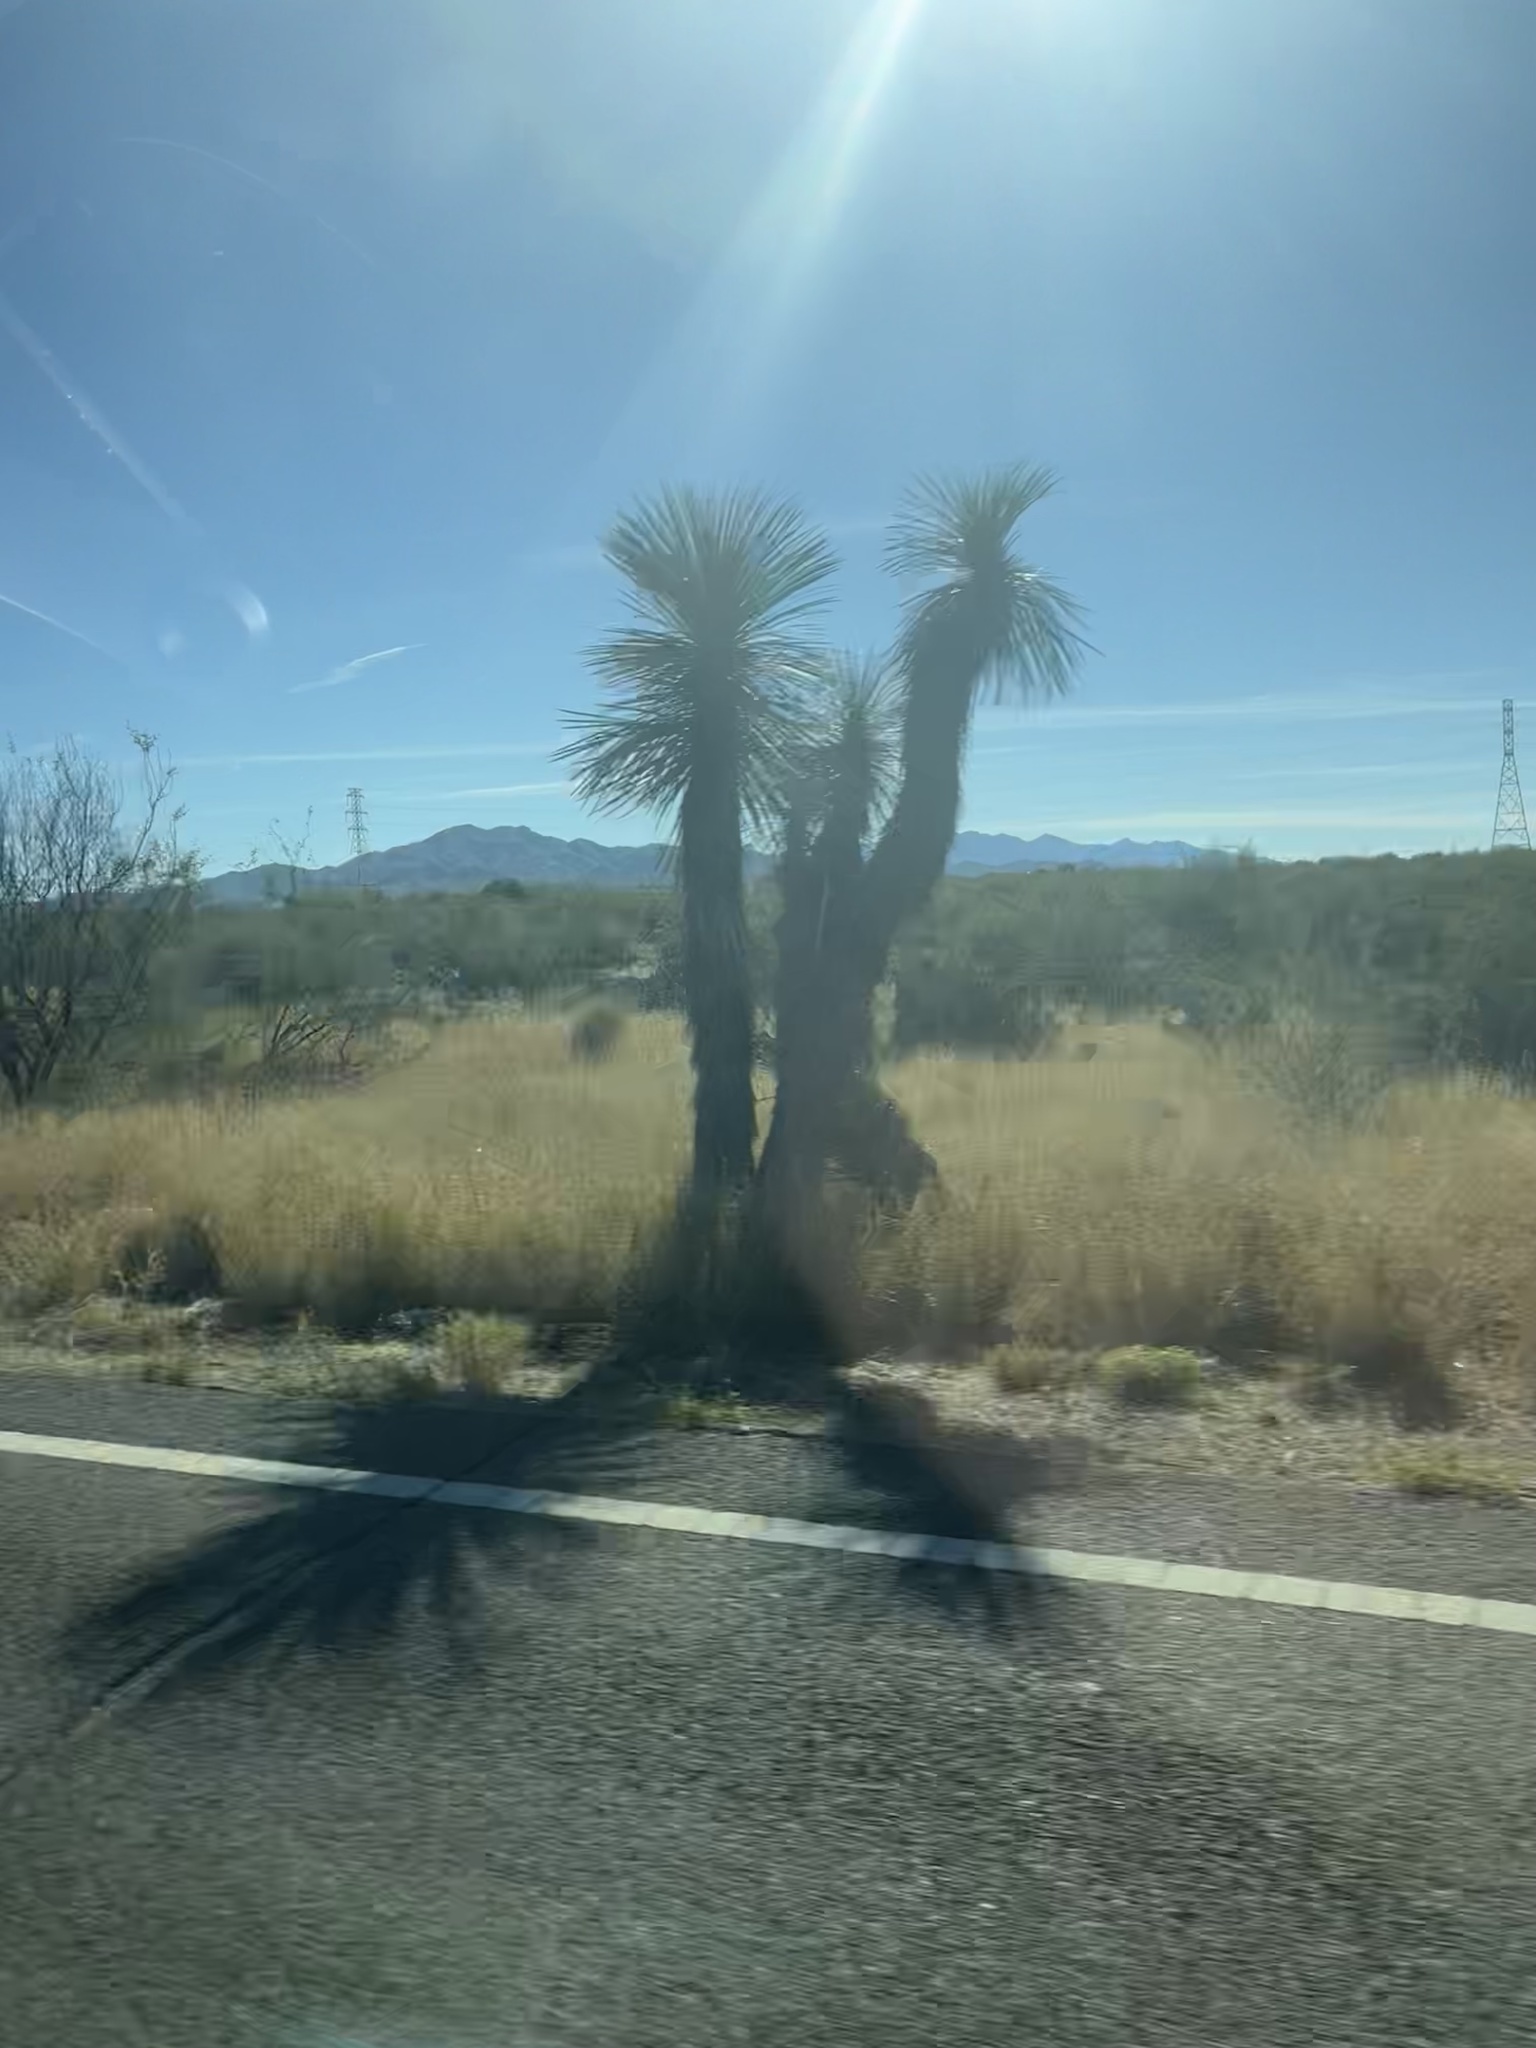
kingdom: Plantae
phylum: Tracheophyta
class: Liliopsida
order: Asparagales
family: Asparagaceae
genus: Yucca
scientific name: Yucca elata
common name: Palmella
